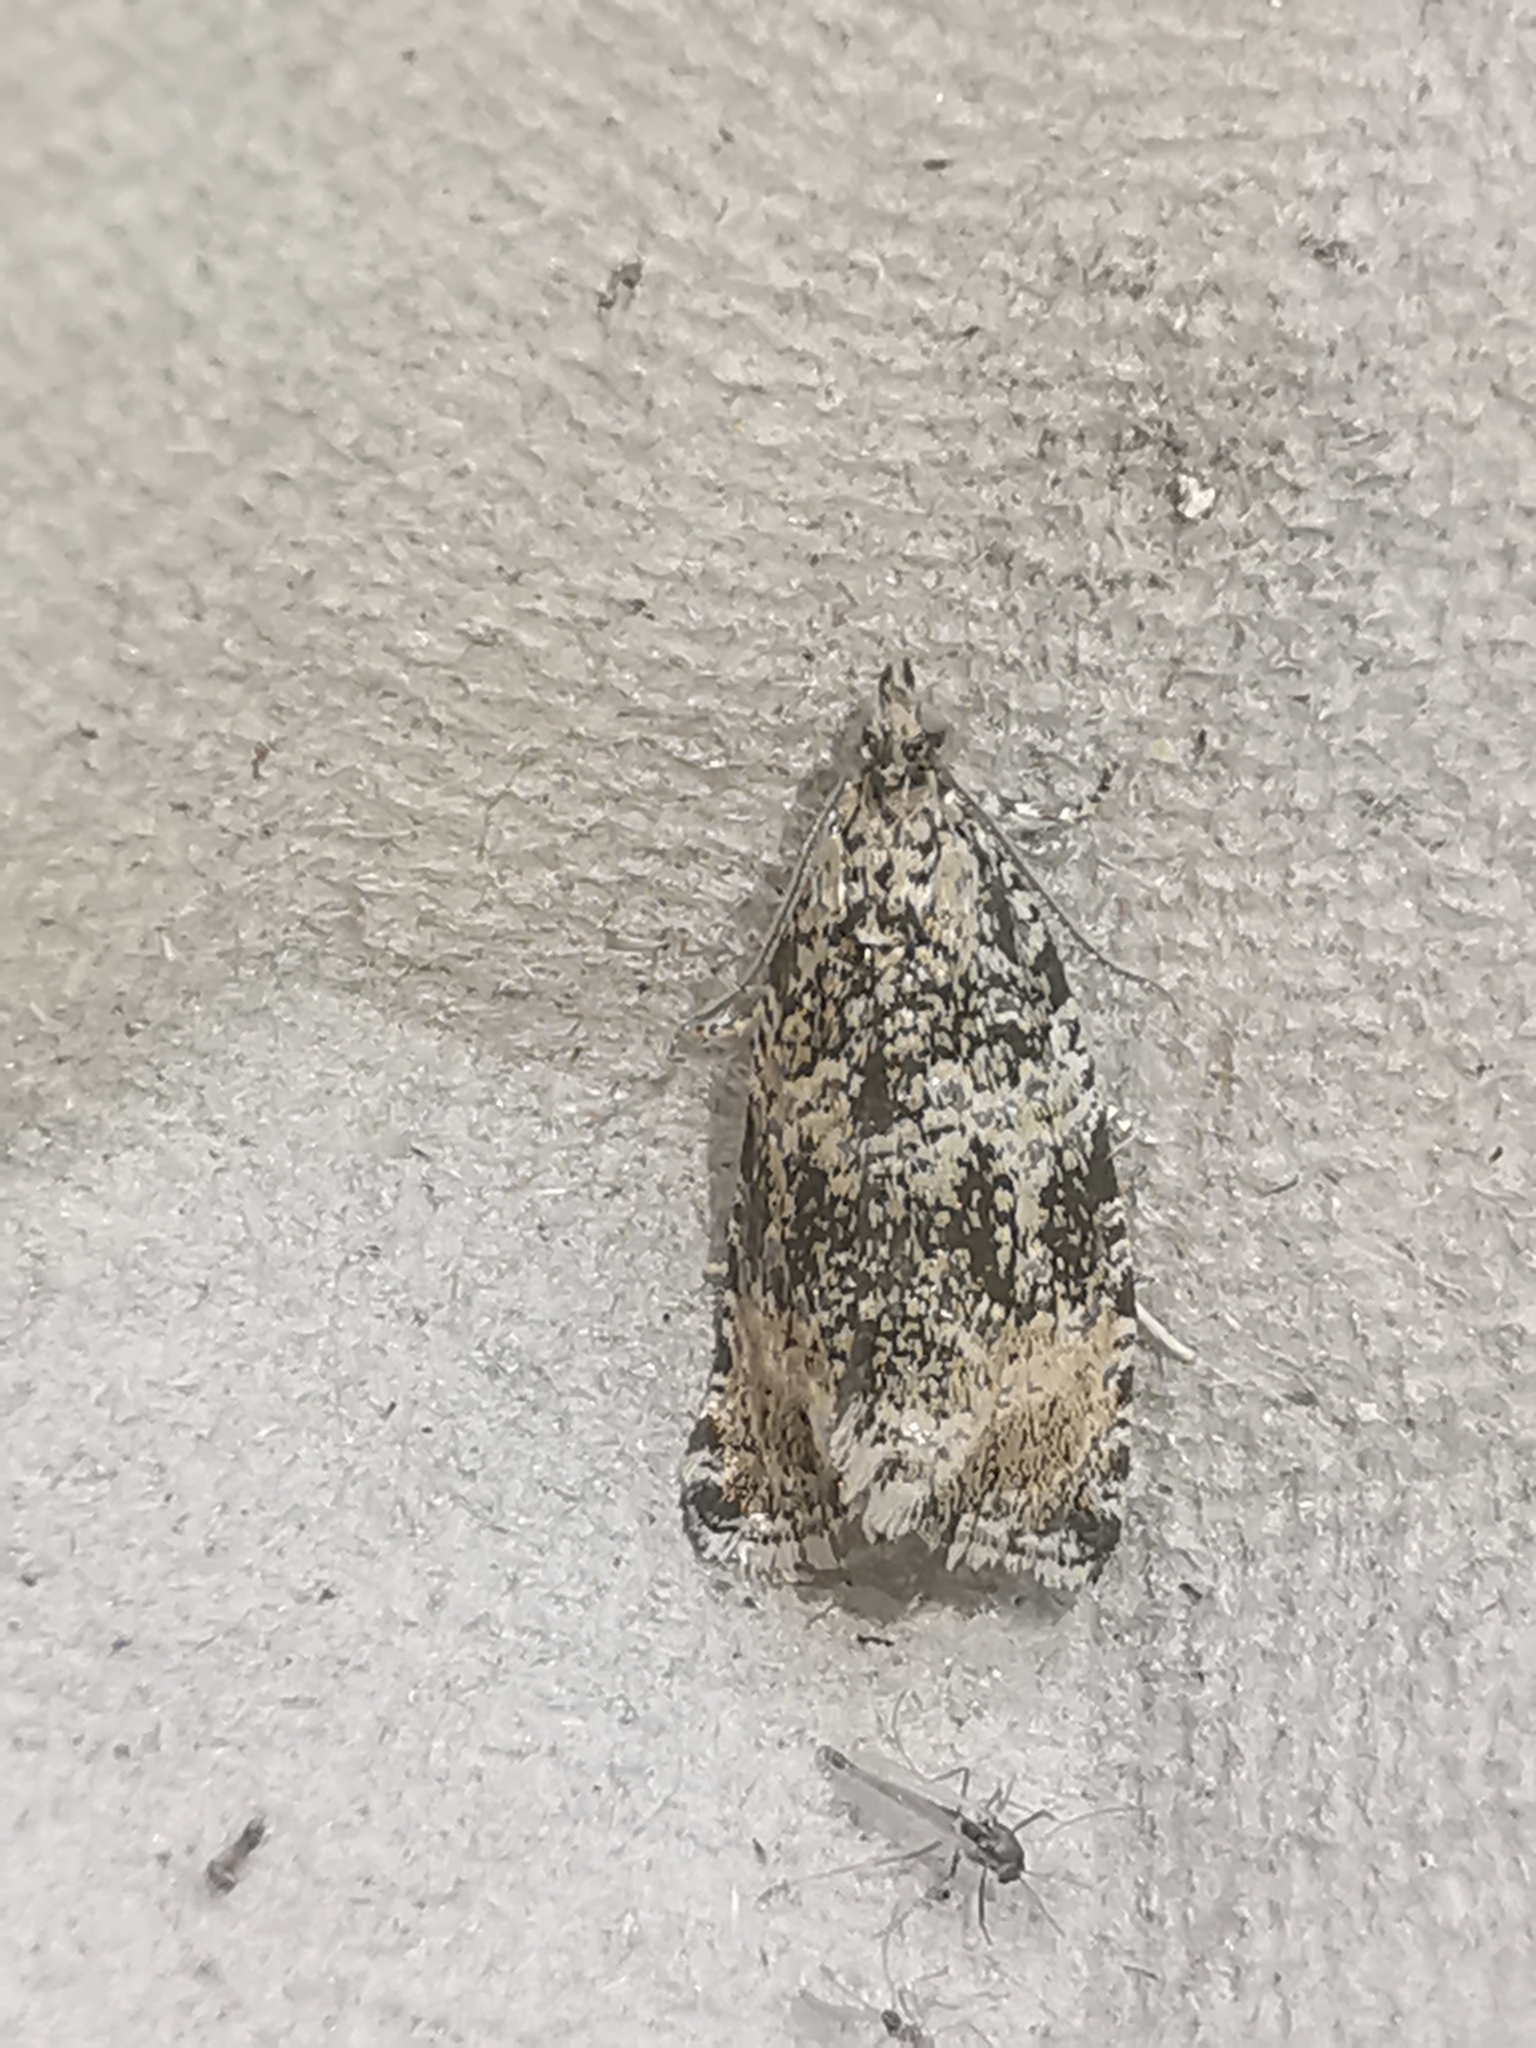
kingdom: Animalia
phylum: Arthropoda
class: Insecta
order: Lepidoptera
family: Tortricidae
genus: Syricoris
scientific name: Syricoris lacunana
